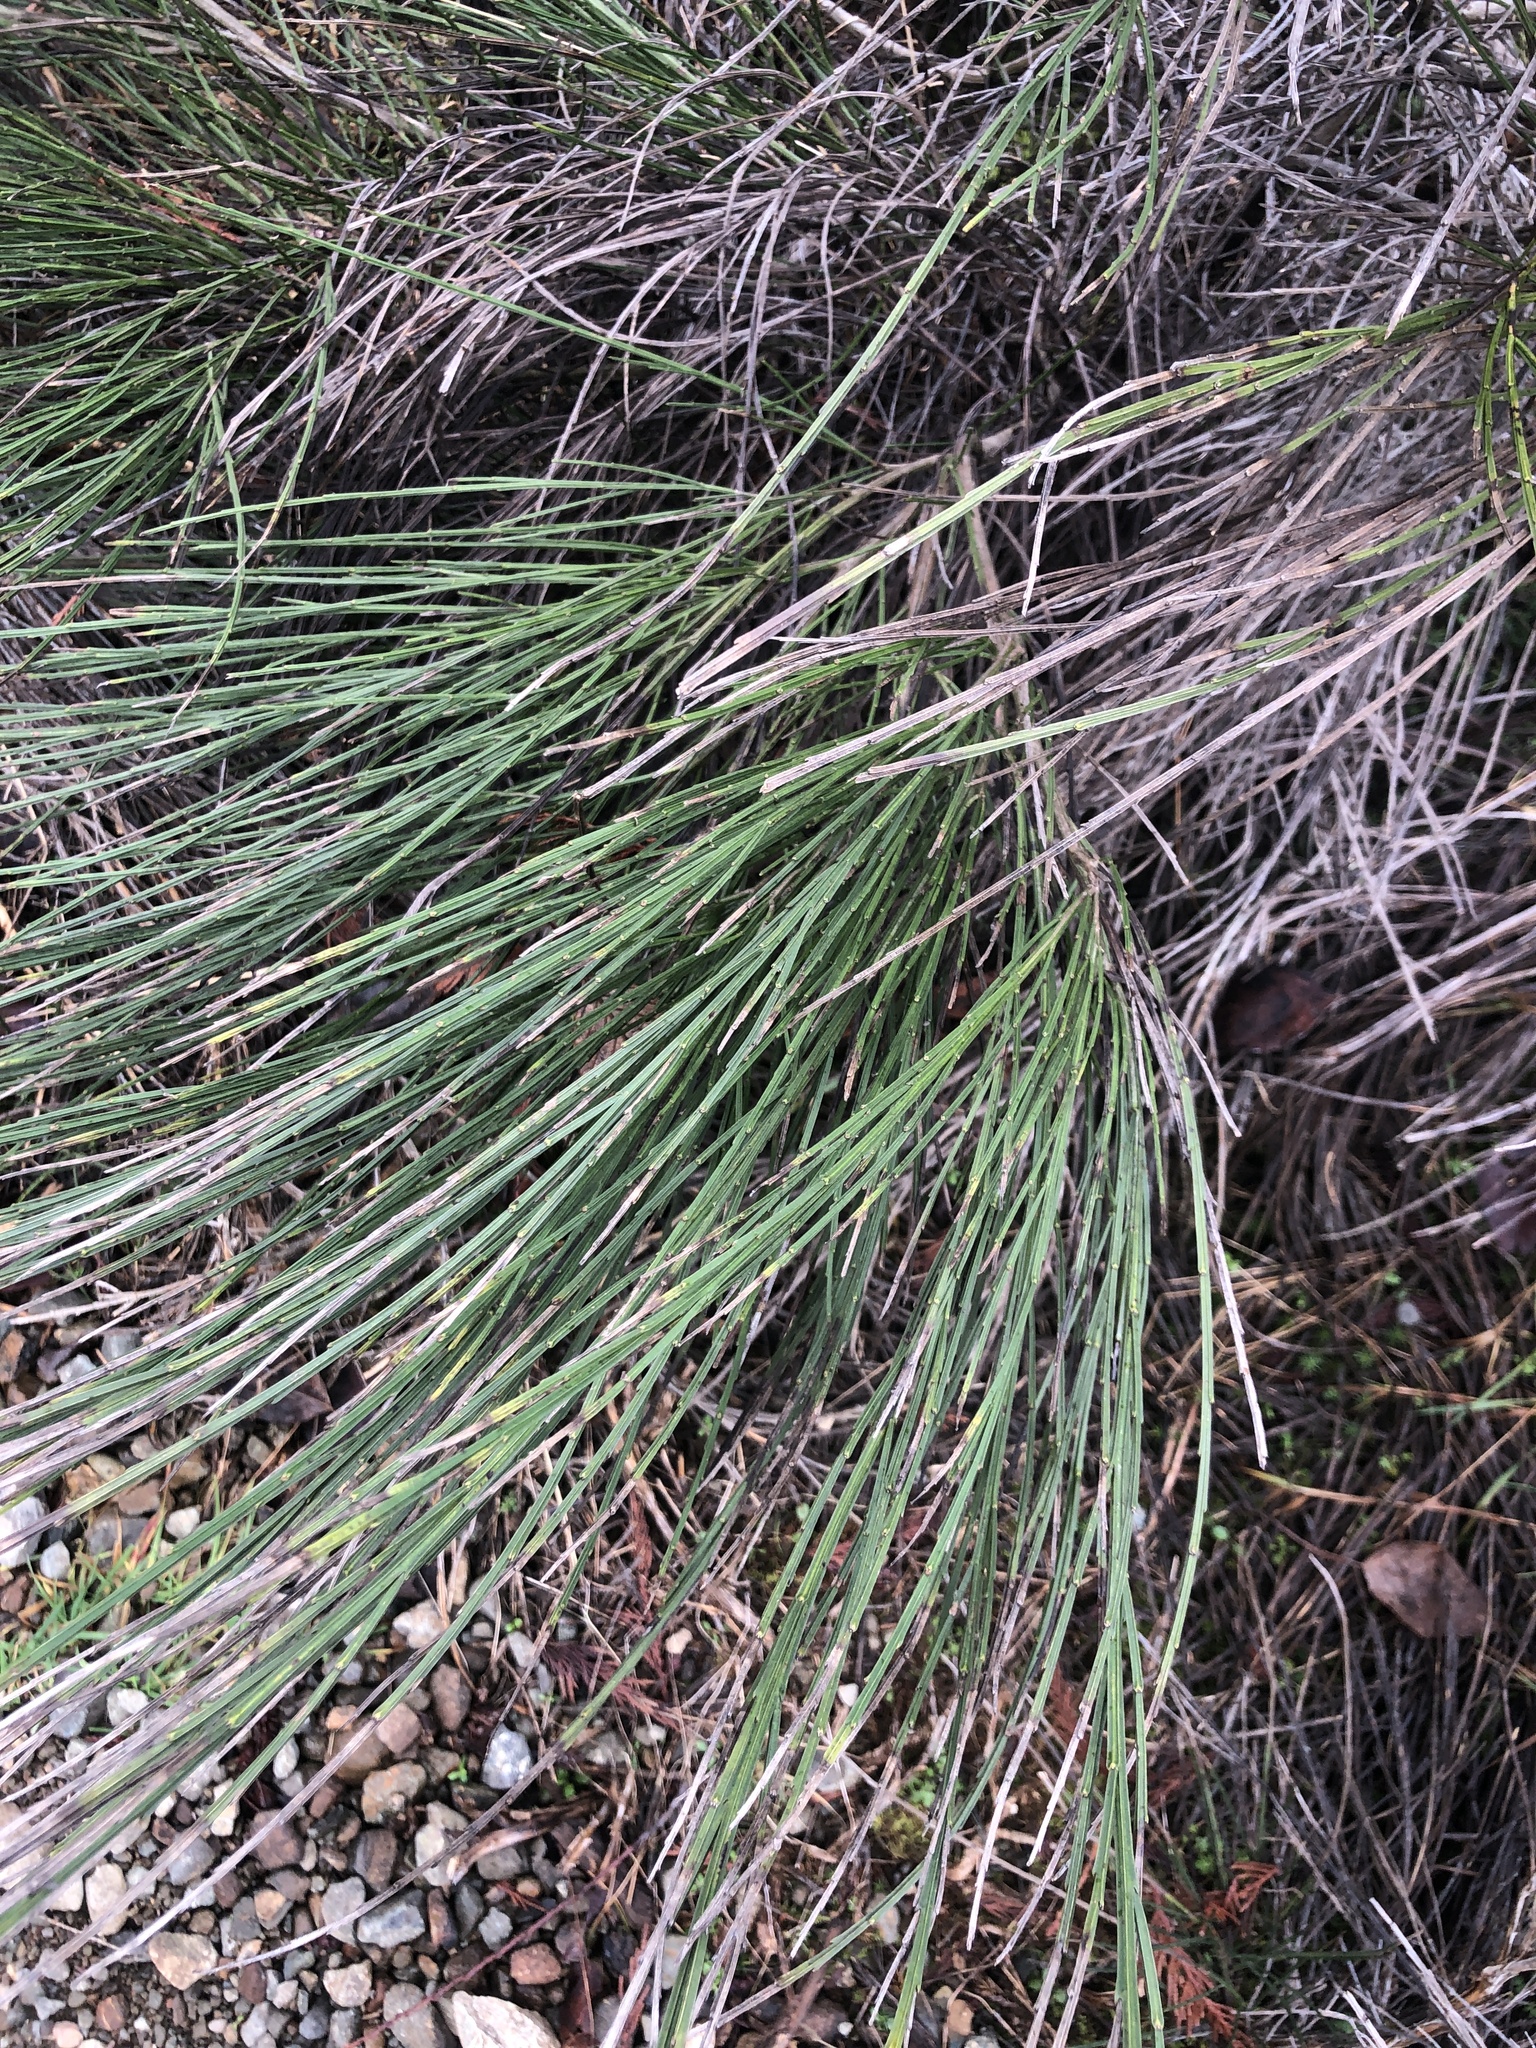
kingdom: Plantae
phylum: Tracheophyta
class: Magnoliopsida
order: Fabales
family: Fabaceae
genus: Cytisus
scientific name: Cytisus scoparius
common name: Scotch broom
